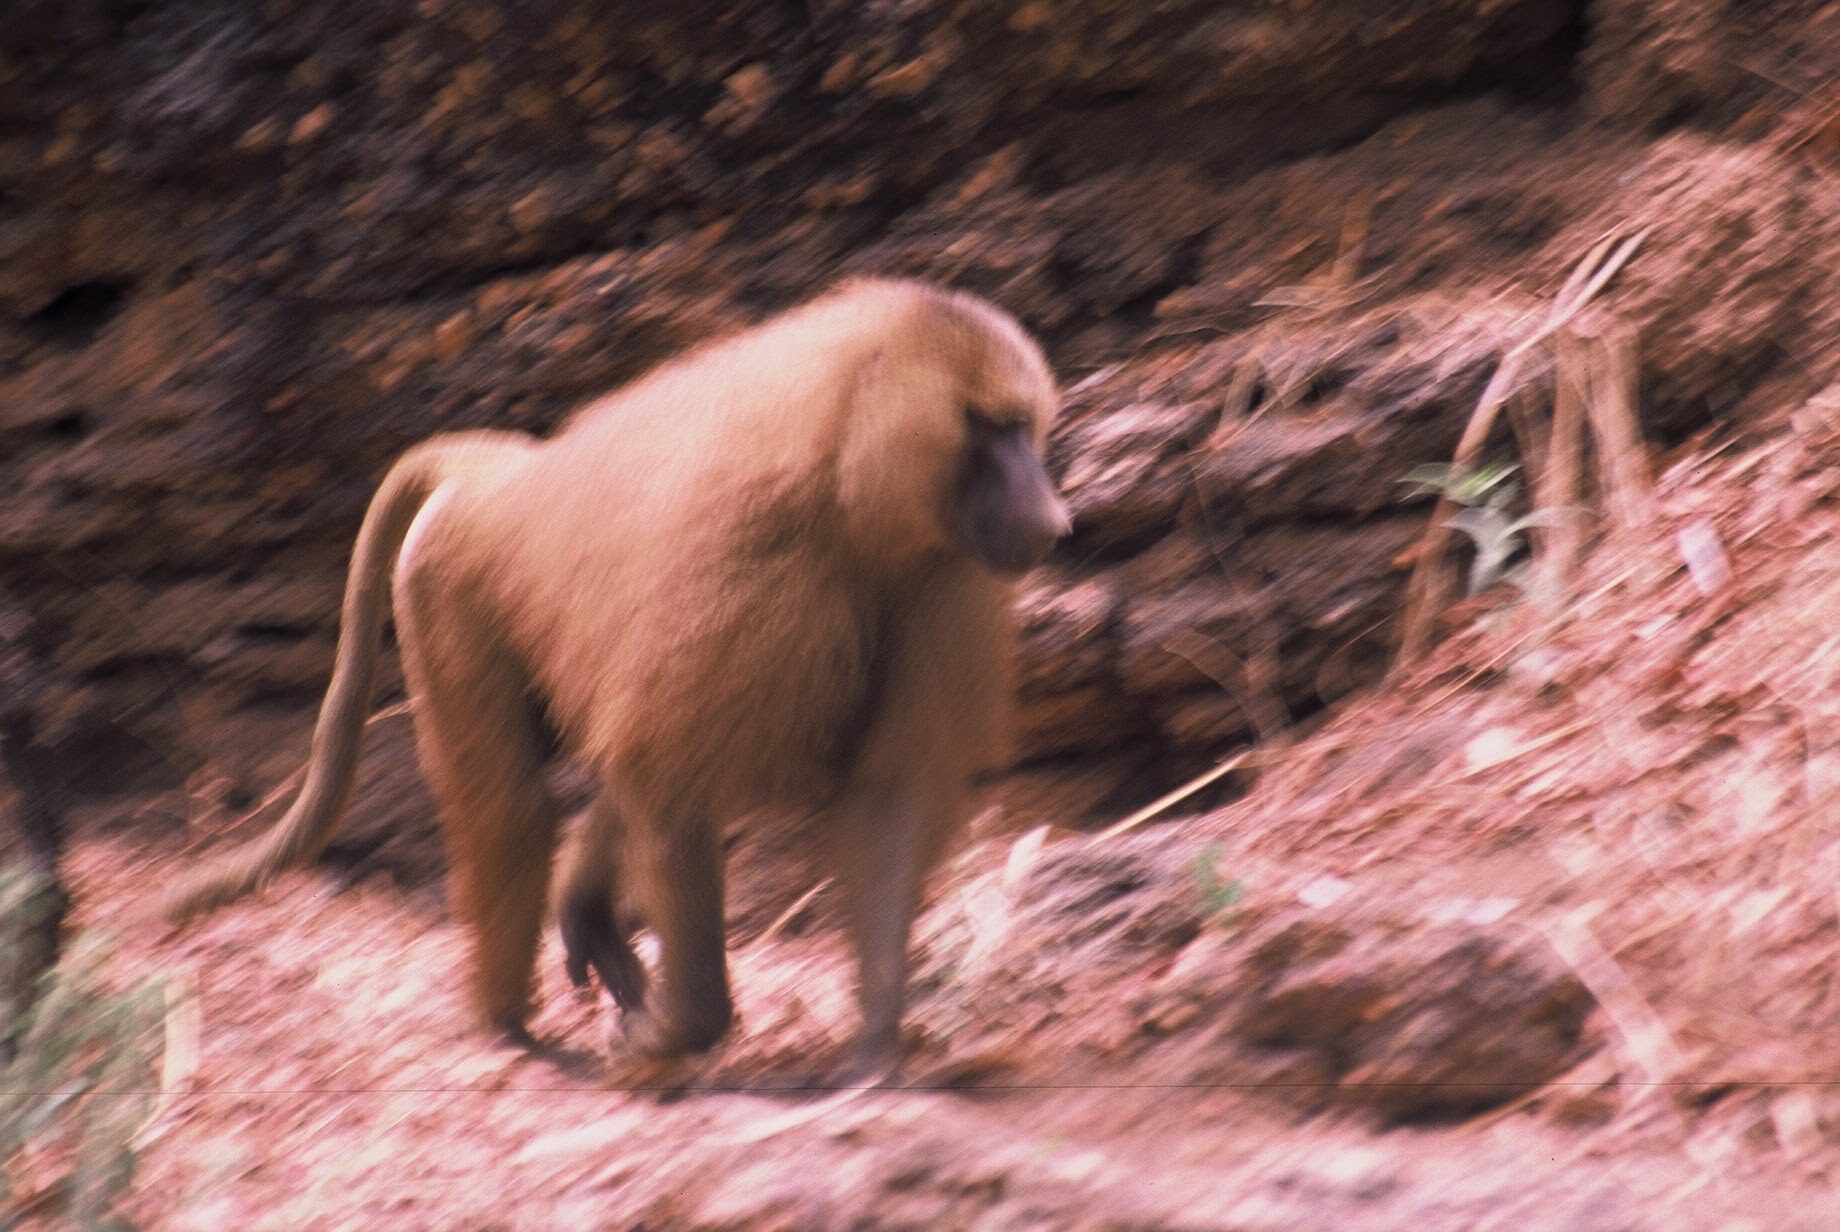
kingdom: Animalia
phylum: Chordata
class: Mammalia
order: Primates
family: Cercopithecidae
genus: Papio
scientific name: Papio papio
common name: Guinea baboon
